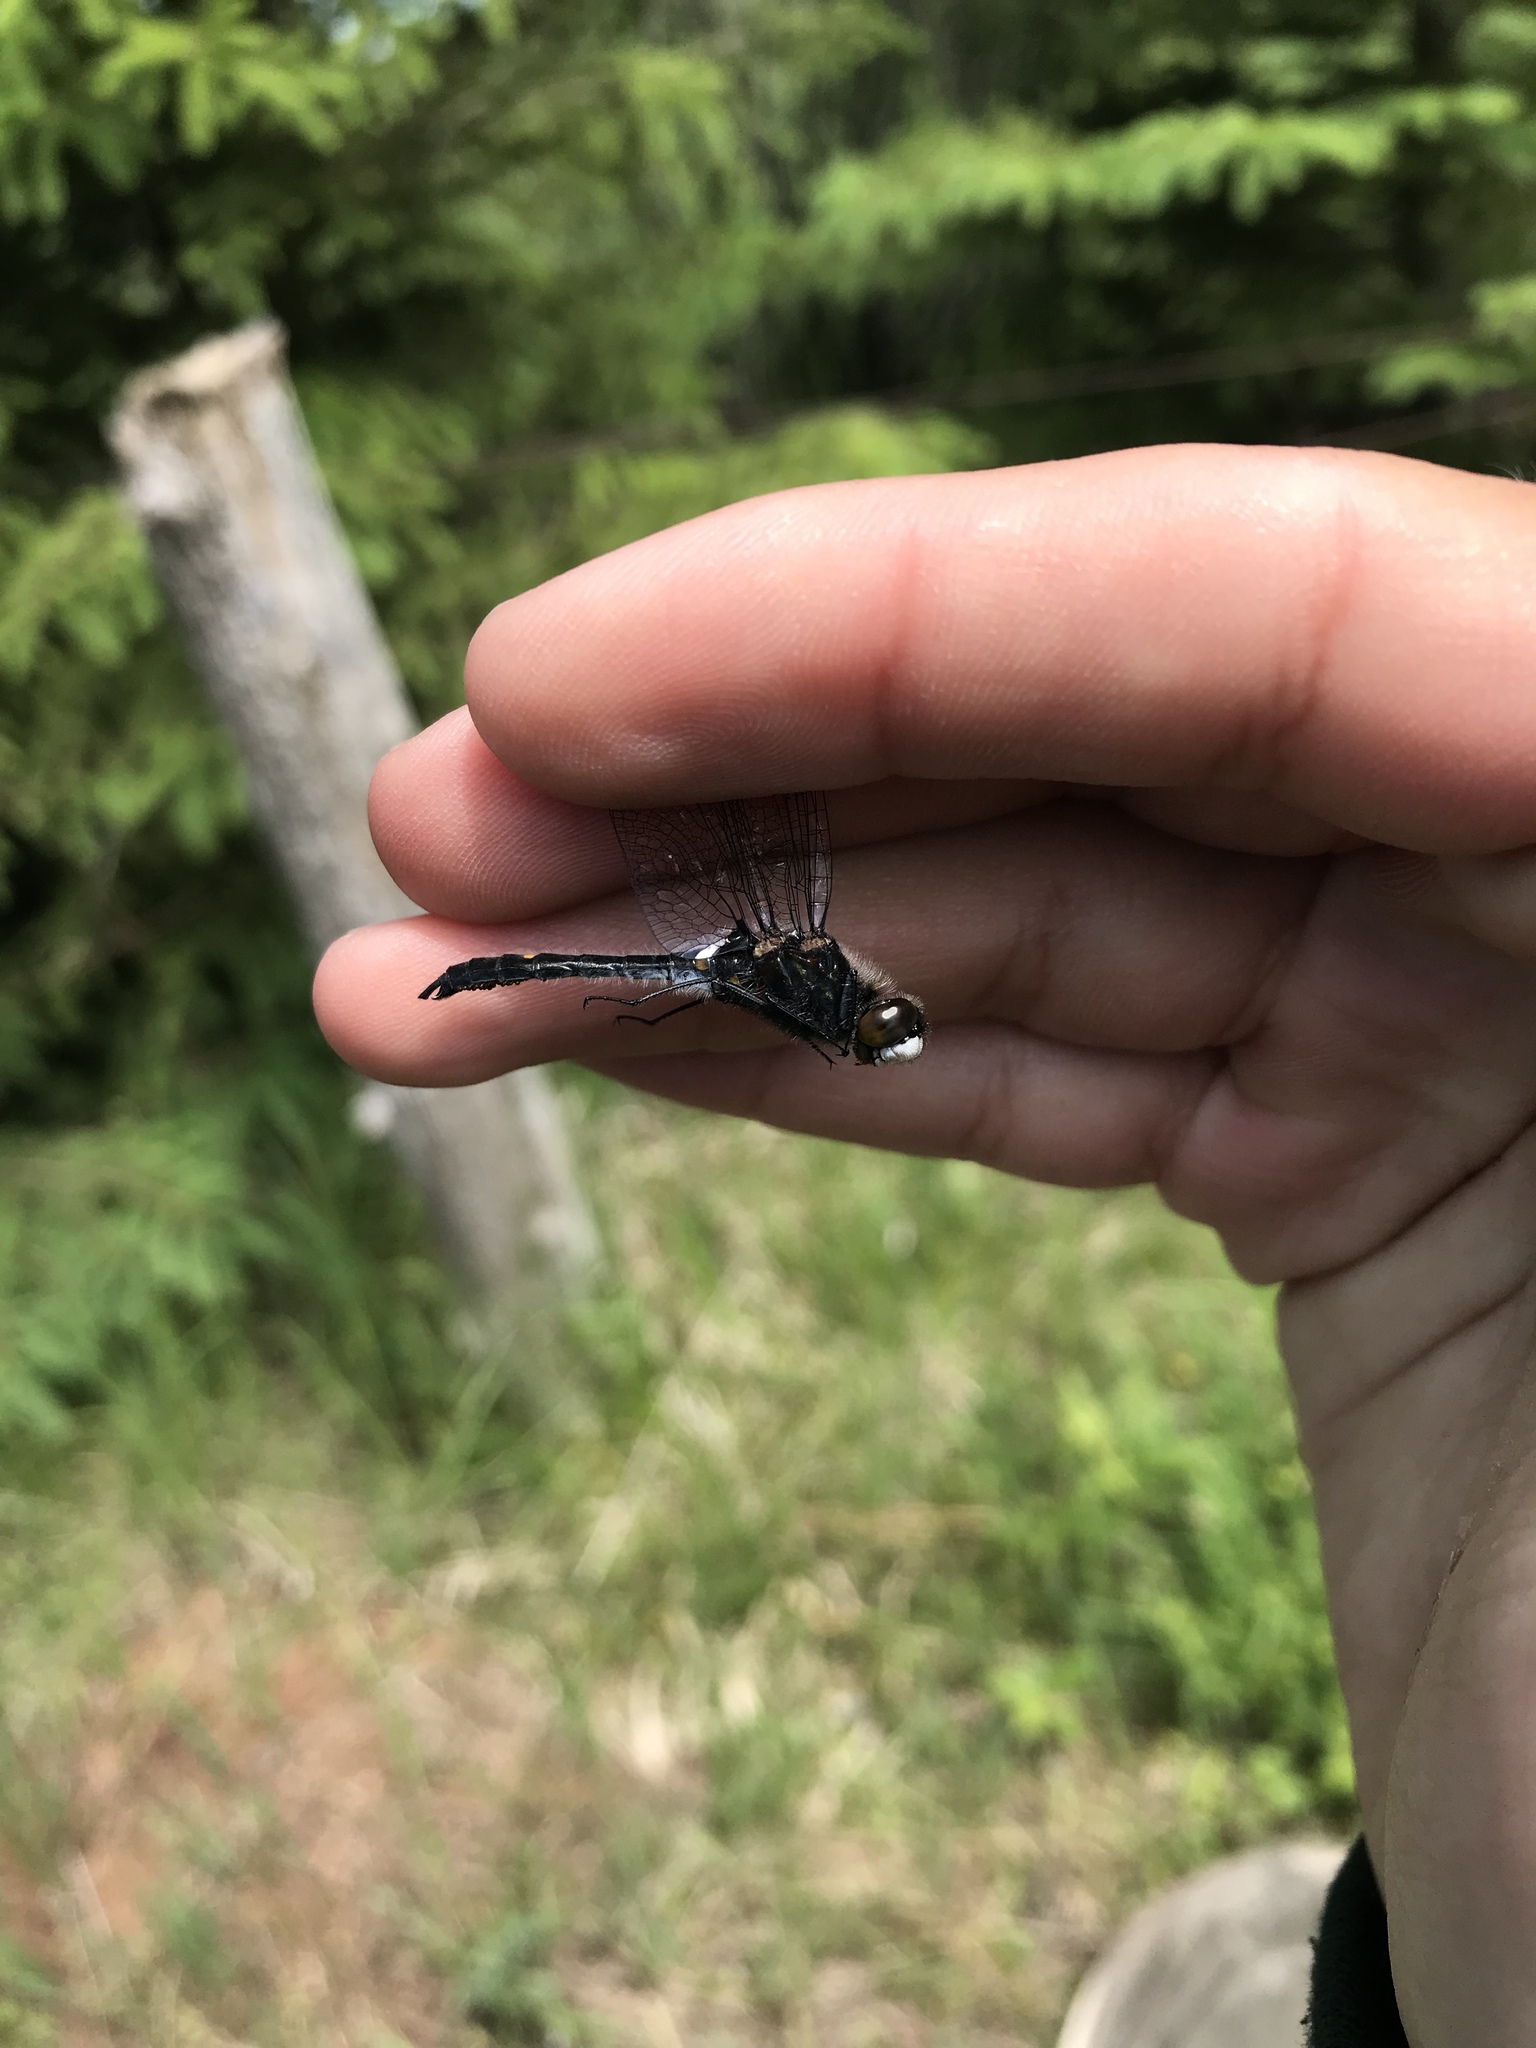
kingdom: Animalia
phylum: Arthropoda
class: Insecta
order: Odonata
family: Libellulidae
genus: Leucorrhinia
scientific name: Leucorrhinia intacta
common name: Dot-tailed whiteface
